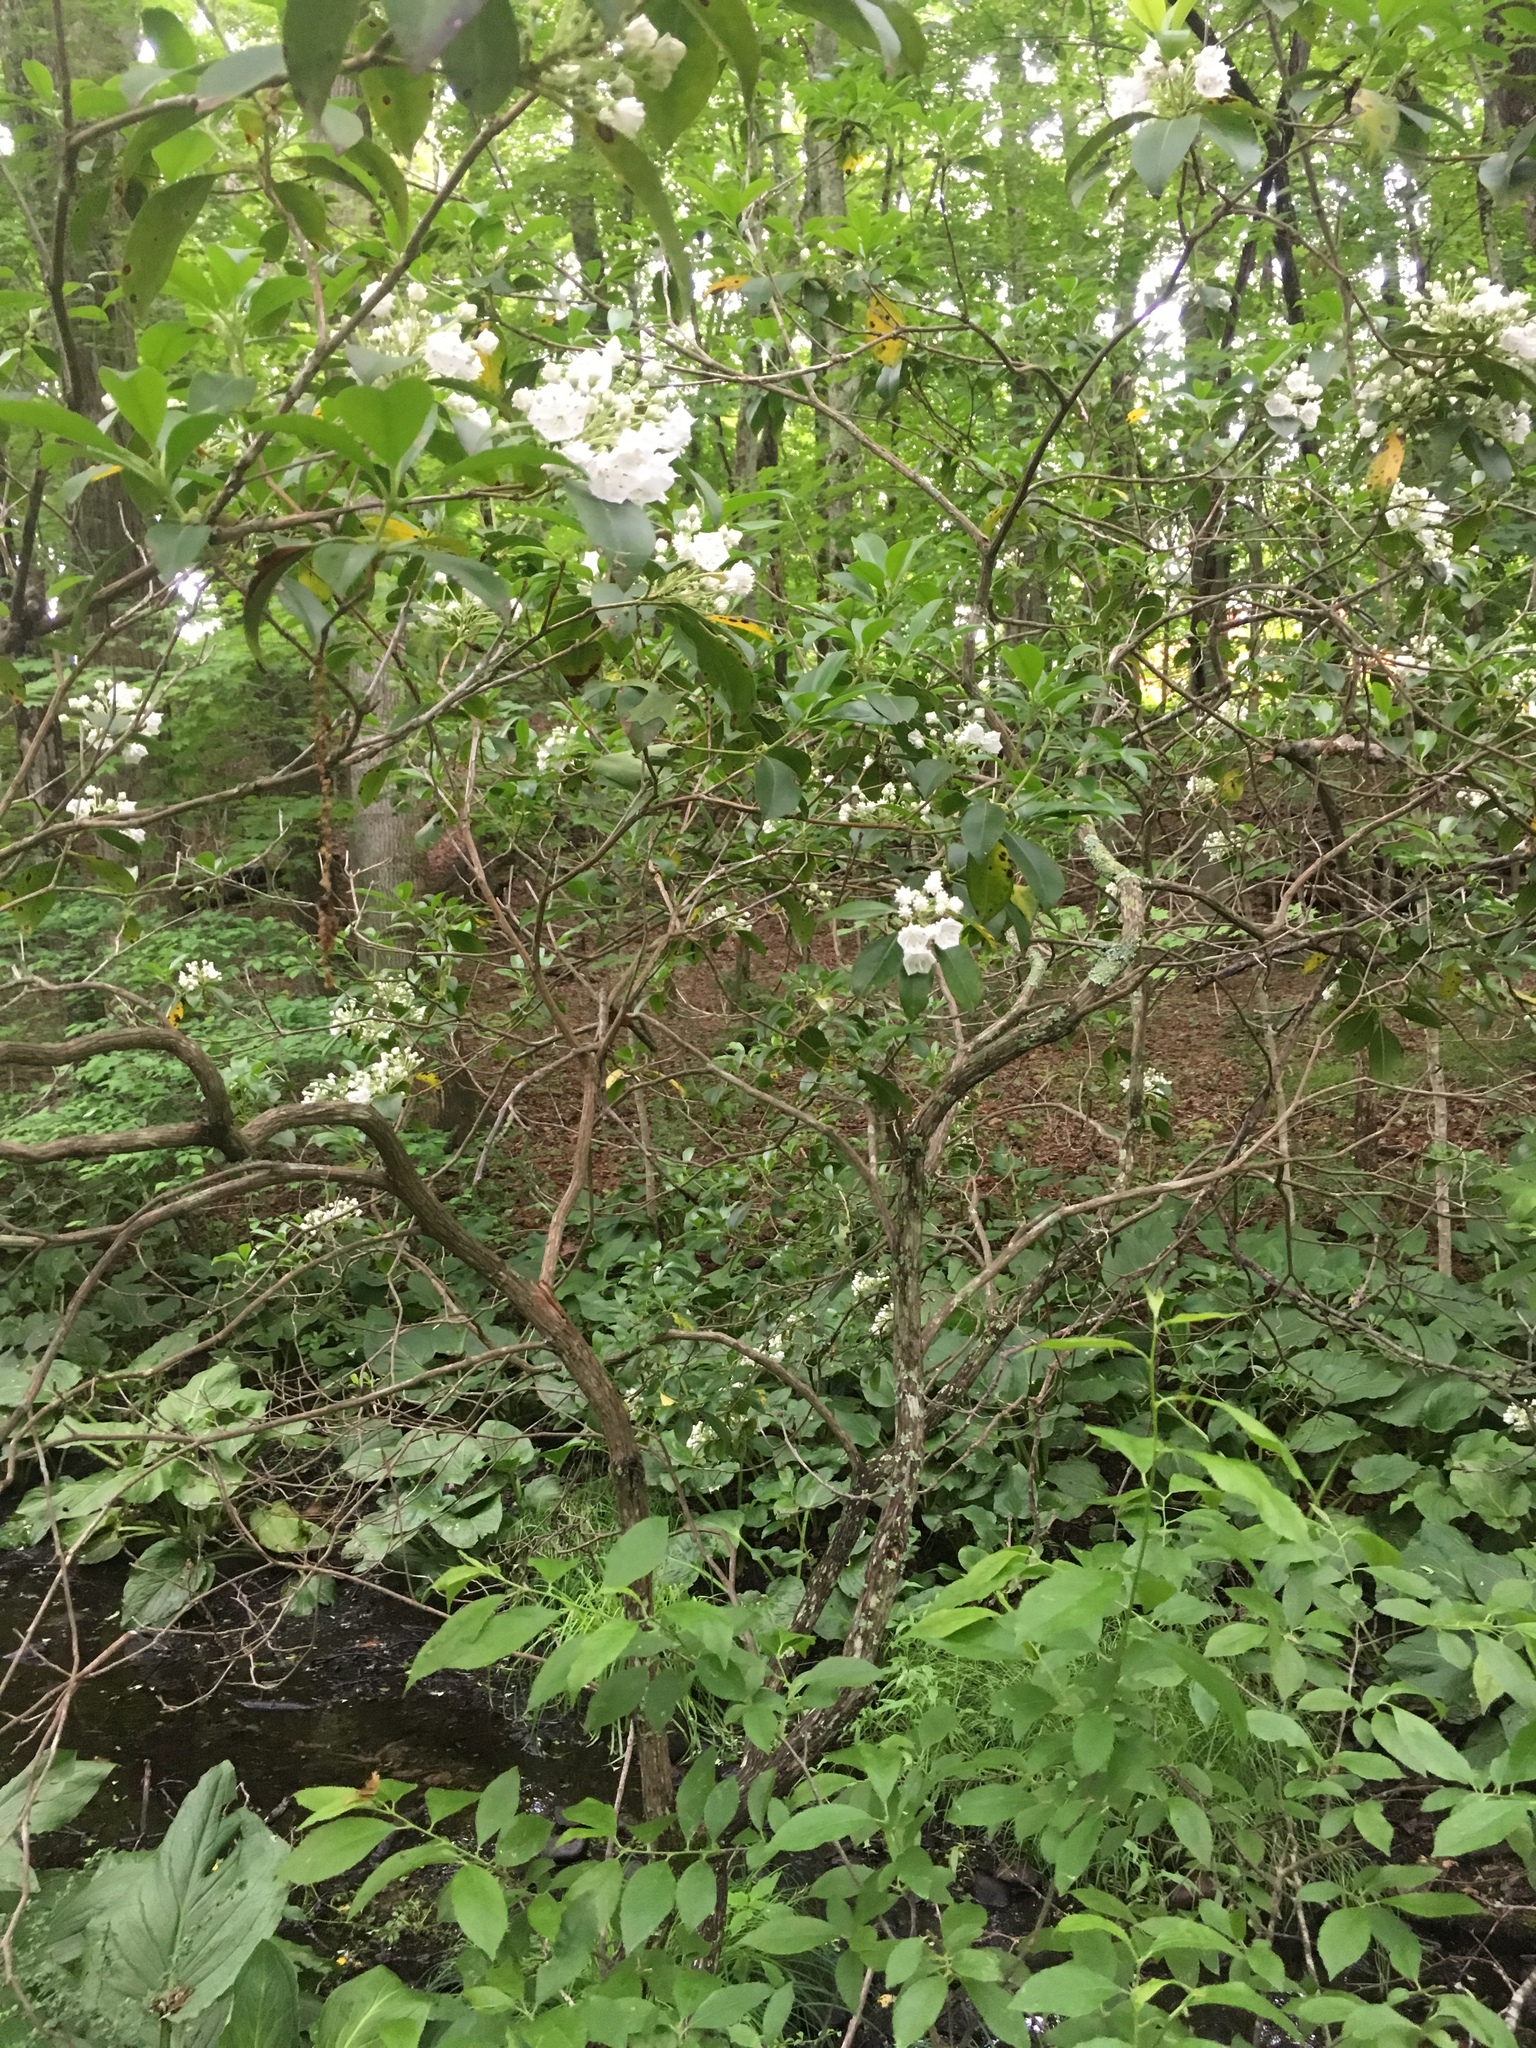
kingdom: Plantae
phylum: Tracheophyta
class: Magnoliopsida
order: Ericales
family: Ericaceae
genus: Kalmia
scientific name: Kalmia latifolia
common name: Mountain-laurel
